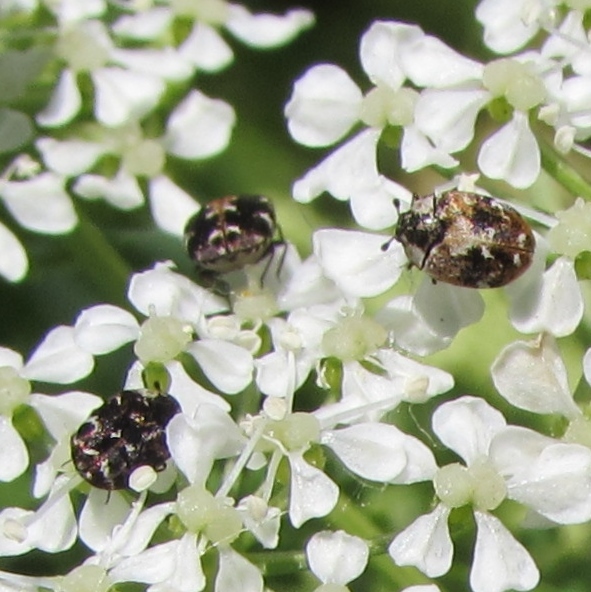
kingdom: Animalia
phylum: Arthropoda
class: Insecta
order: Coleoptera
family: Dermestidae
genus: Anthrenus
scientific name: Anthrenus lepidus
